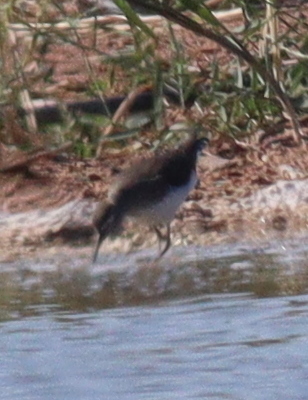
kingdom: Animalia
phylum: Chordata
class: Aves
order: Charadriiformes
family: Scolopacidae
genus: Tringa
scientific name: Tringa ochropus
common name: Green sandpiper
